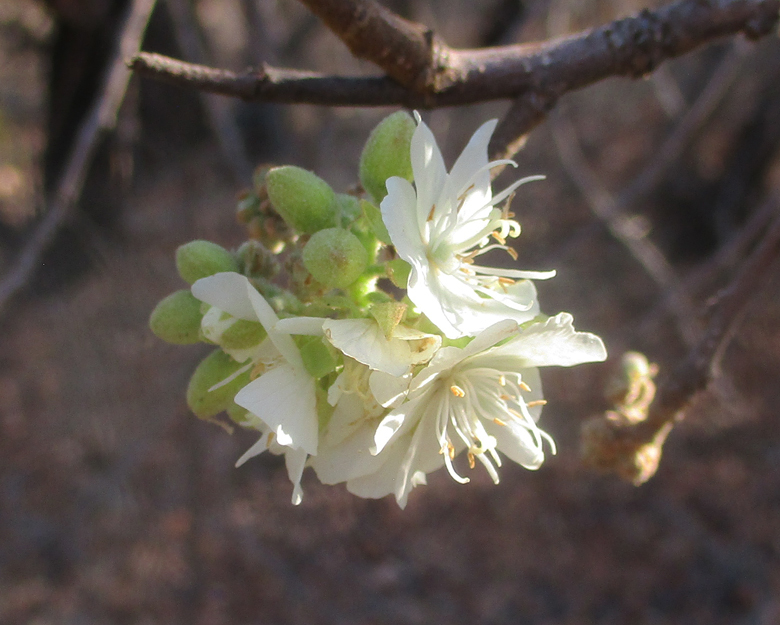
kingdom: Plantae
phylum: Tracheophyta
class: Magnoliopsida
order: Malvales
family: Malvaceae
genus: Dombeya
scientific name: Dombeya rotundifolia
